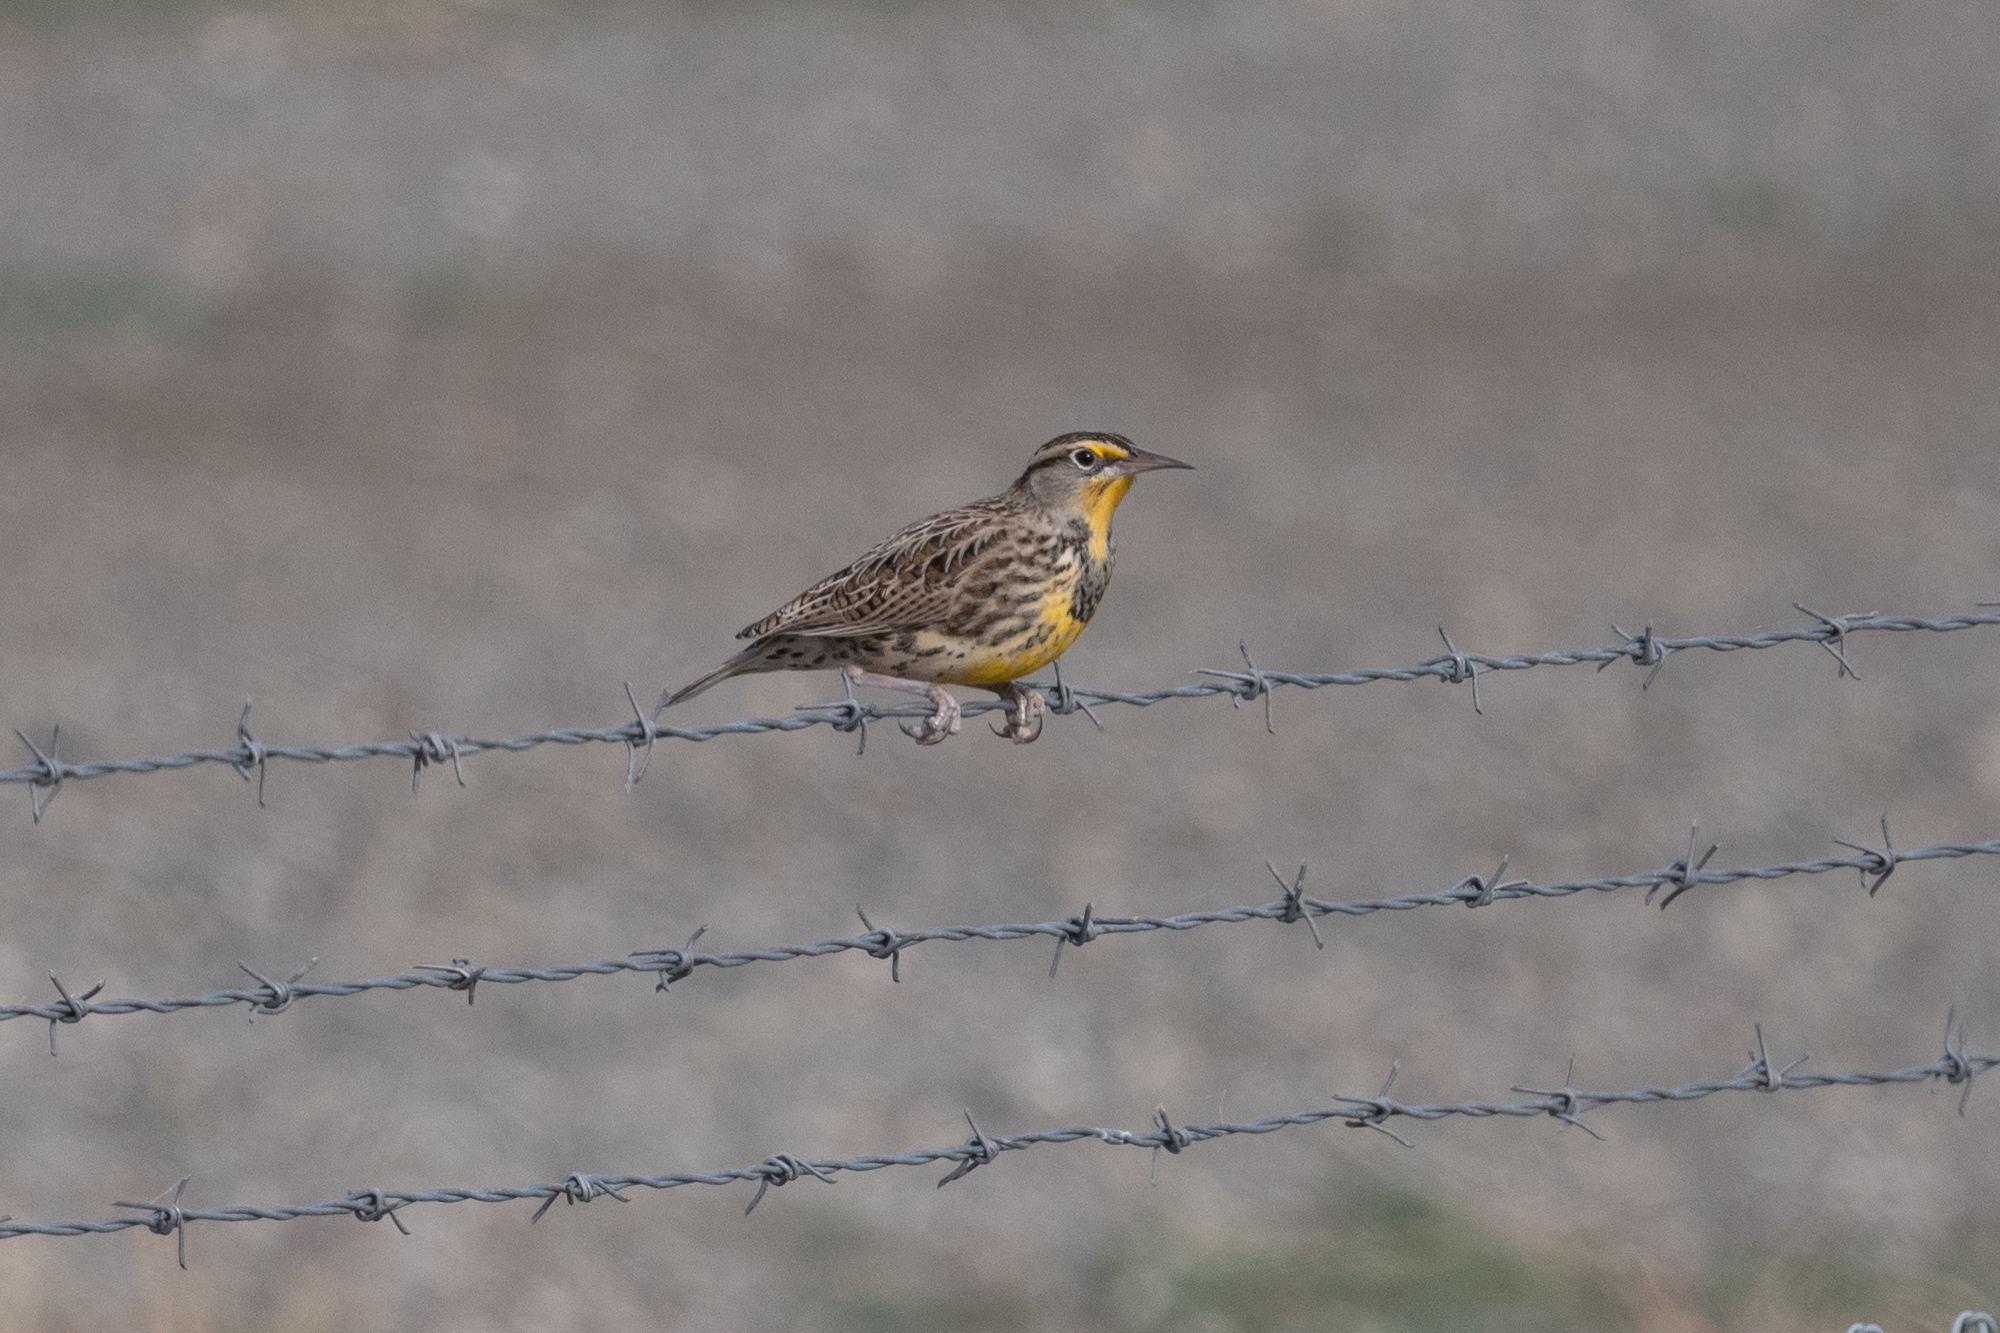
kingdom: Animalia
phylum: Chordata
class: Aves
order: Passeriformes
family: Corvidae
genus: Corvus
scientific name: Corvus corax
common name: Common raven
